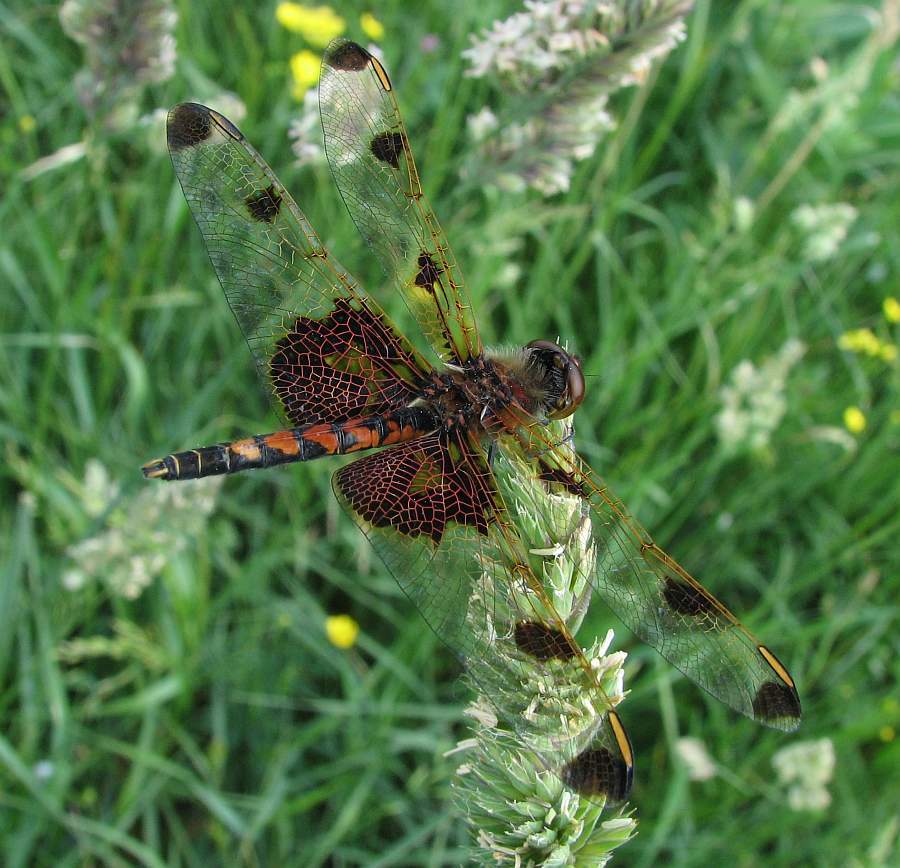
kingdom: Animalia
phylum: Arthropoda
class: Insecta
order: Odonata
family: Libellulidae
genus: Celithemis
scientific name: Celithemis elisa
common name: Calico pennant
